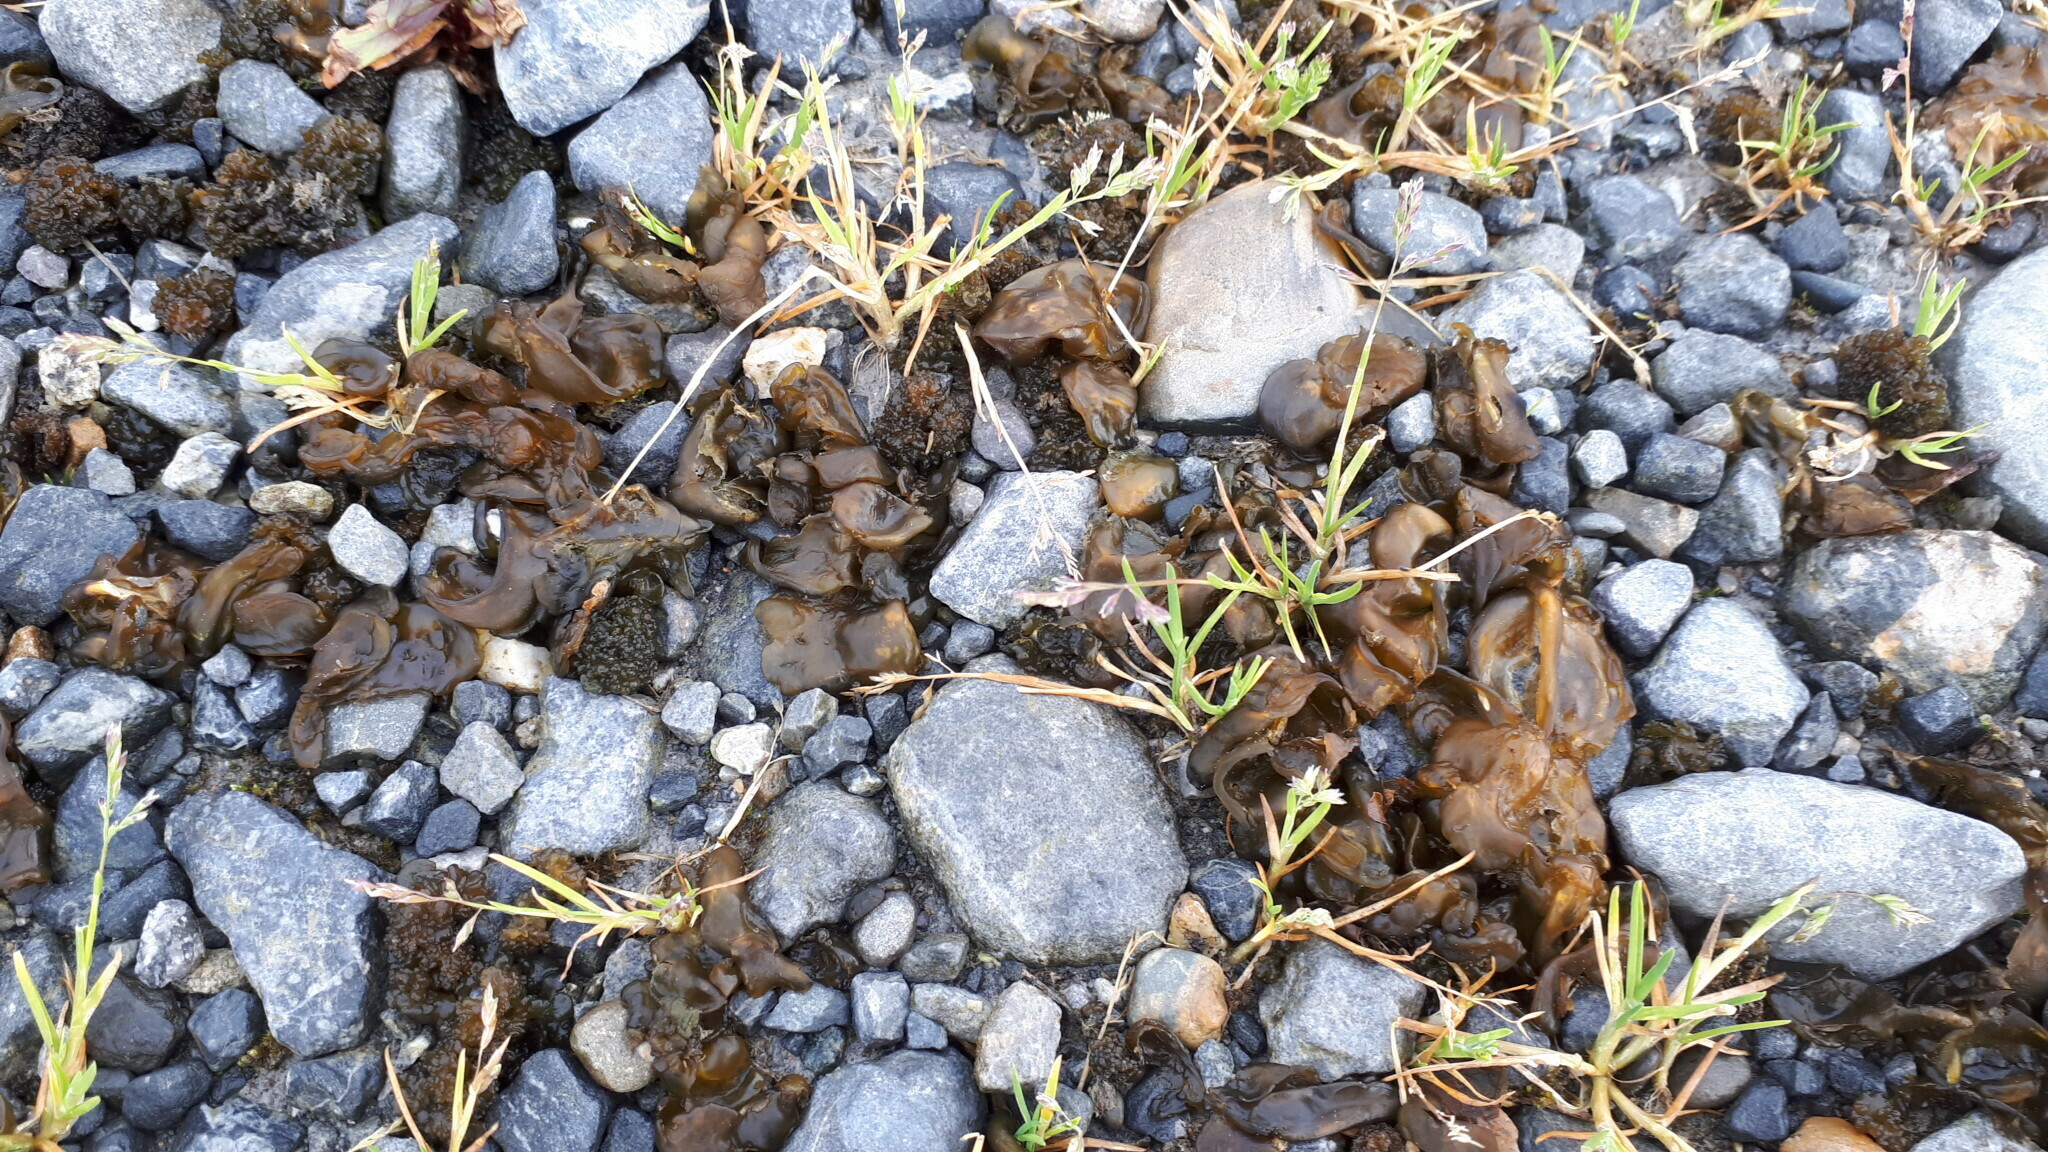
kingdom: Bacteria
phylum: Cyanobacteria
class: Cyanobacteriia
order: Cyanobacteriales
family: Nostocaceae
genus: Nostoc
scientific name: Nostoc commune
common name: Star jelly
